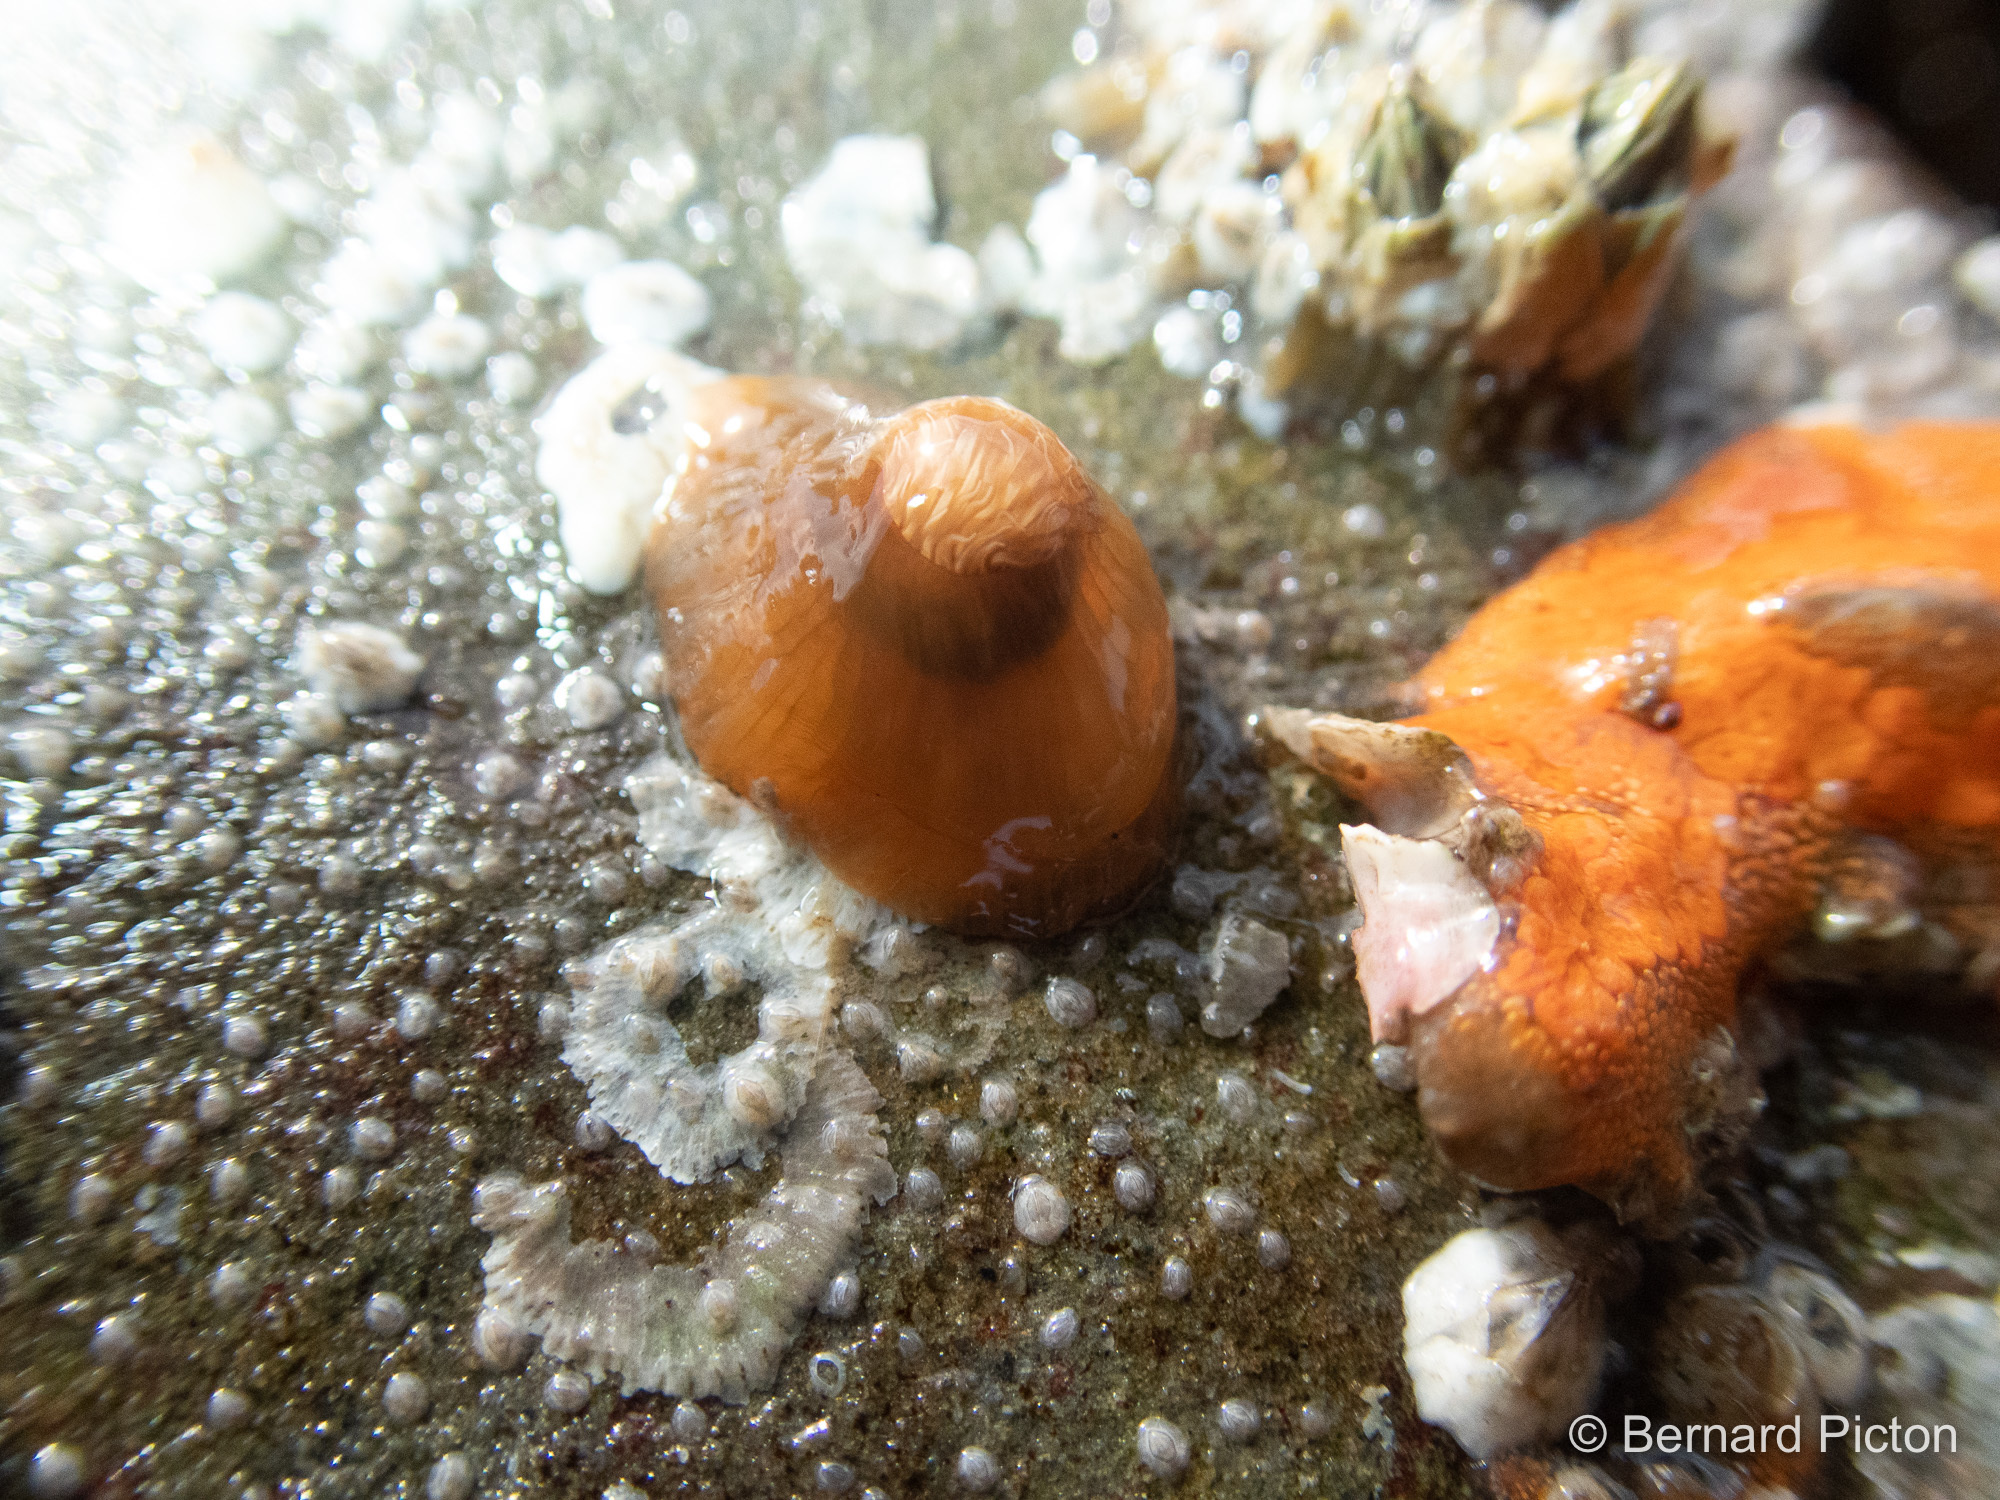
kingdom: Animalia
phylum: Cnidaria
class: Anthozoa
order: Actiniaria
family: Metridiidae
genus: Metridium
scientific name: Metridium senile
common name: Clonal plumose anemone
